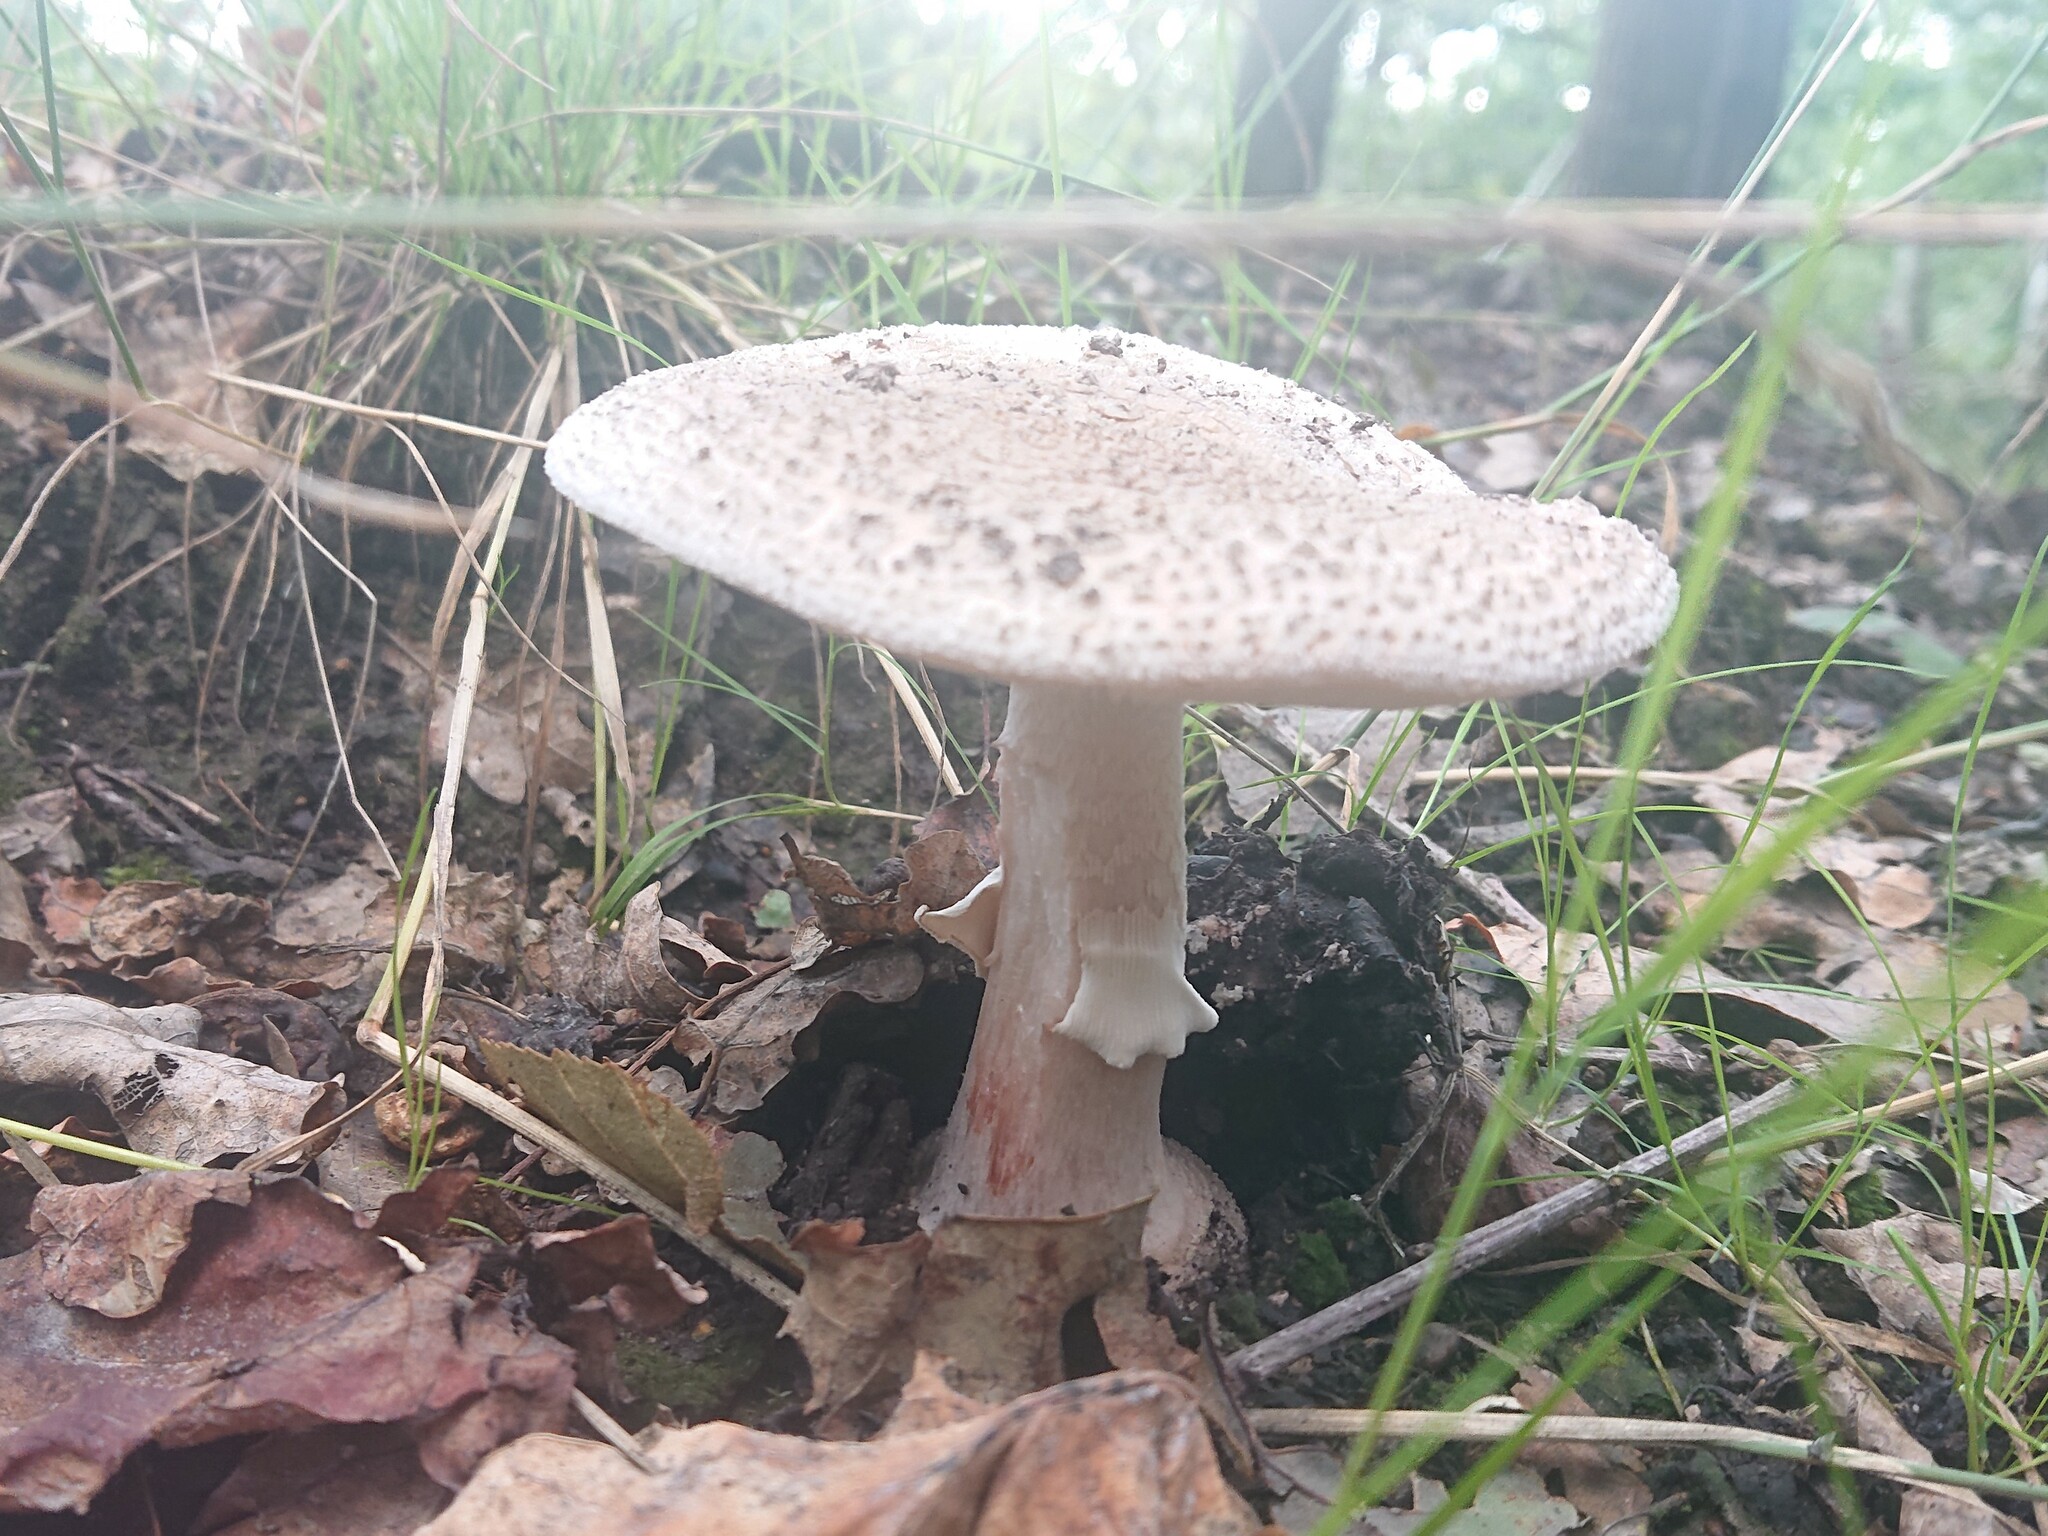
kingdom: Fungi
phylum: Basidiomycota
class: Agaricomycetes
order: Agaricales
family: Amanitaceae
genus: Amanita
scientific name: Amanita rubescens
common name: Blusher
